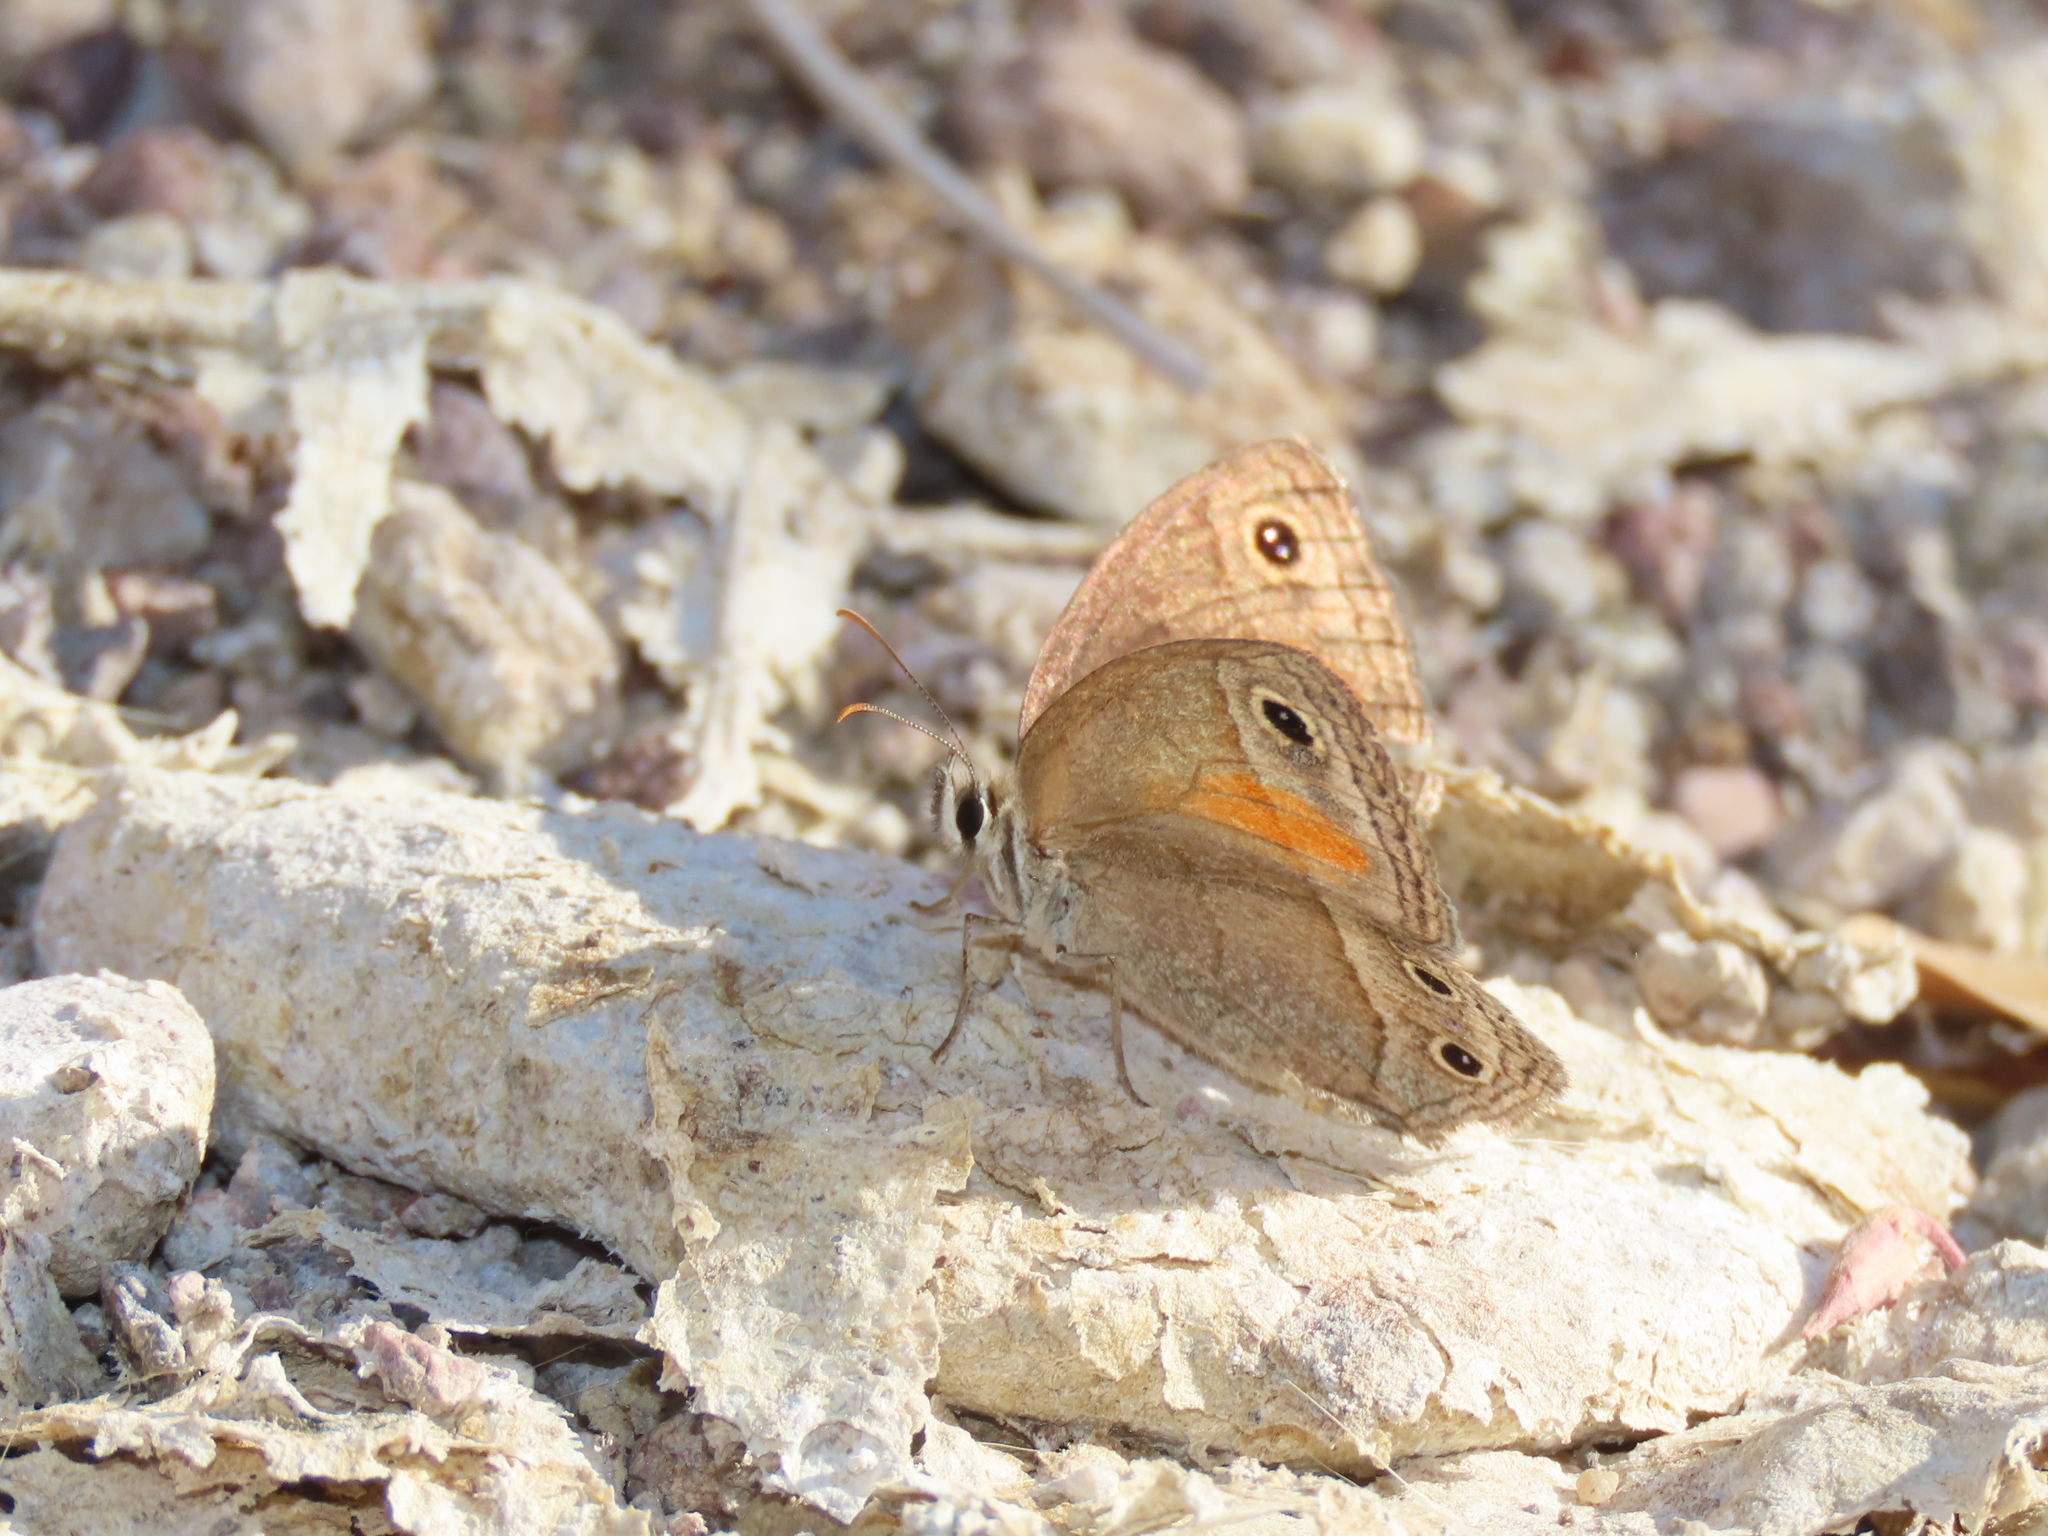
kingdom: Animalia
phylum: Arthropoda
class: Insecta
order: Lepidoptera
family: Nymphalidae
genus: Euptychia
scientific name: Euptychia
